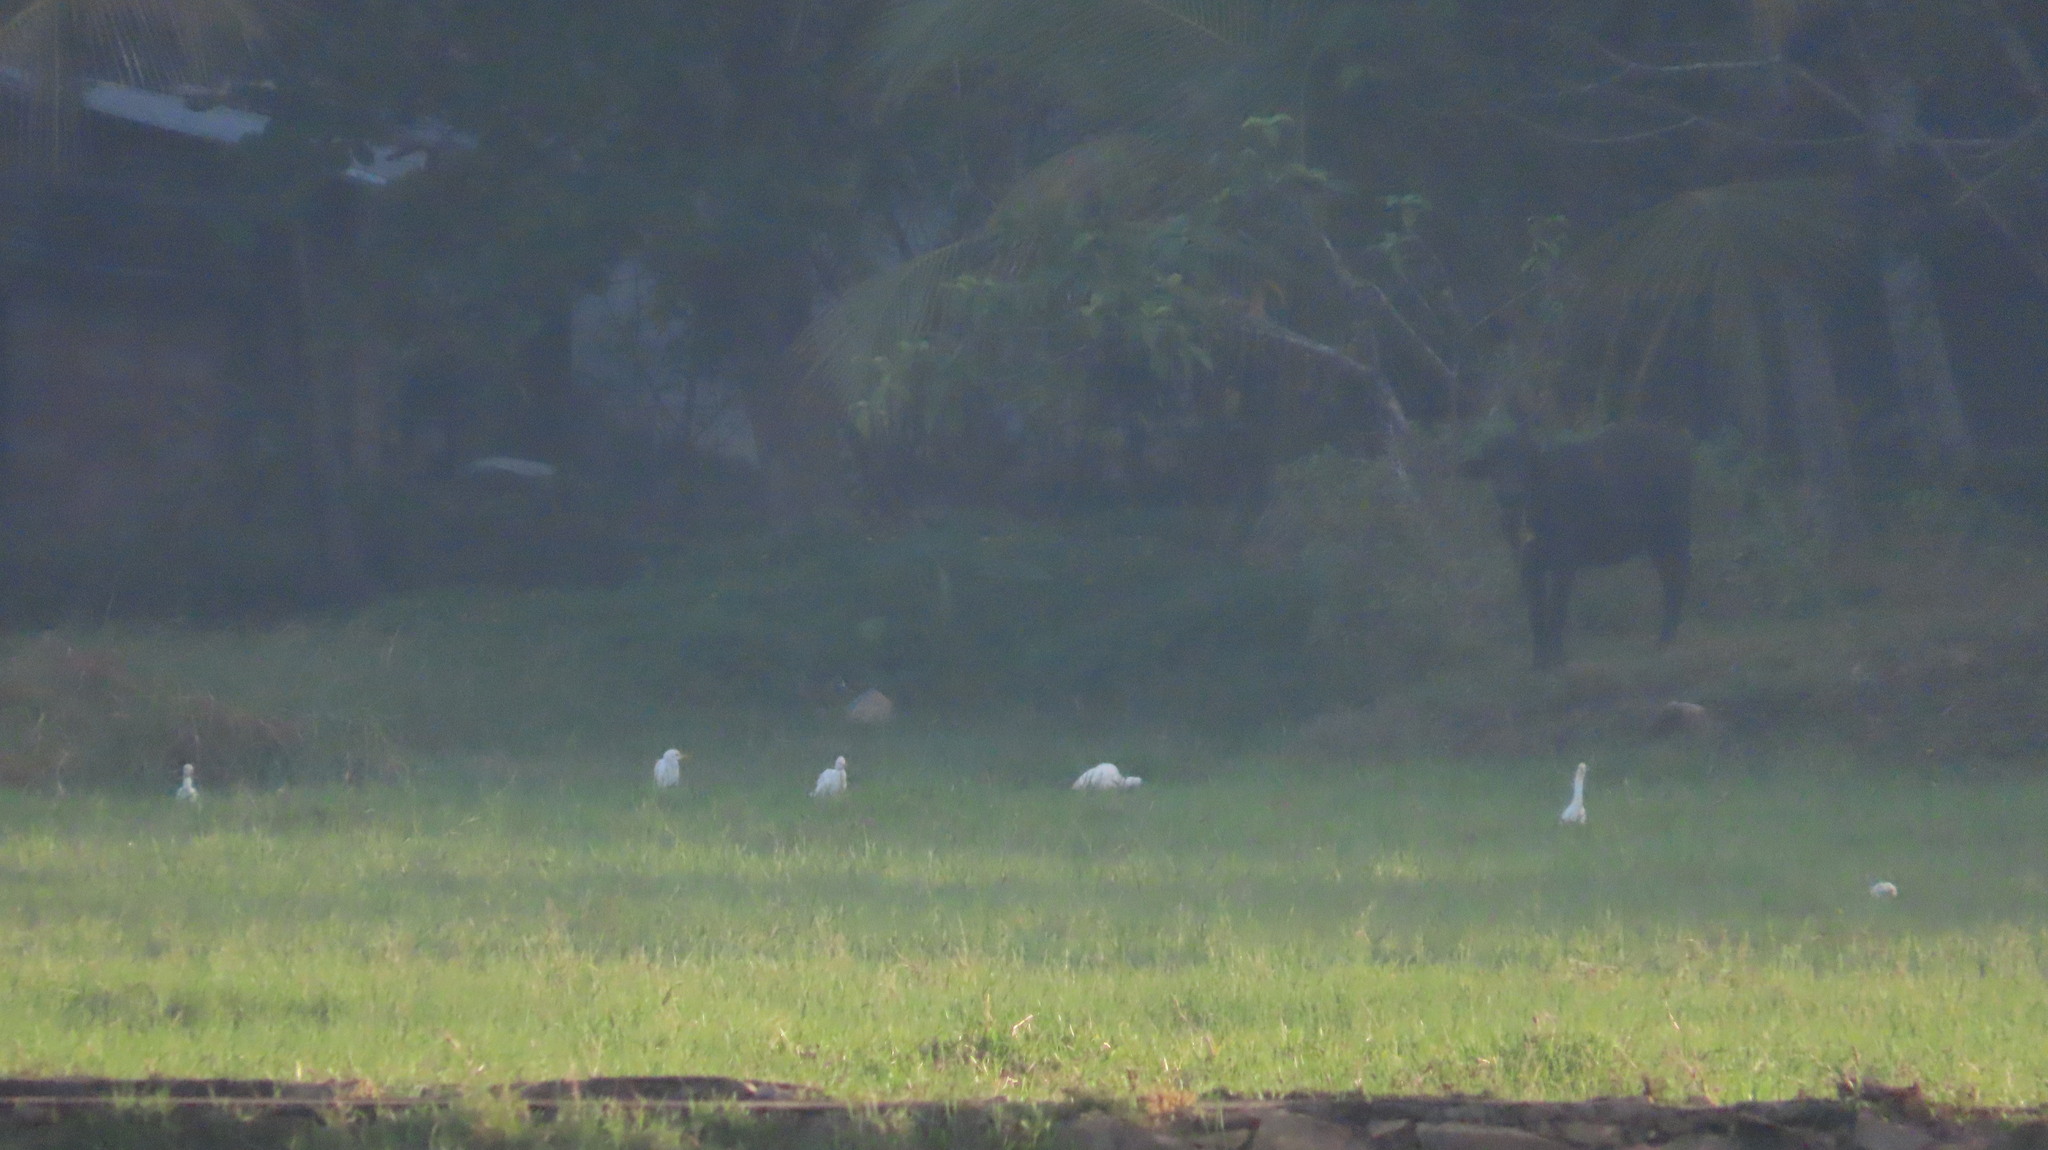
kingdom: Animalia
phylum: Chordata
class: Aves
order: Pelecaniformes
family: Ardeidae
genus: Bubulcus
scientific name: Bubulcus coromandus
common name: Eastern cattle egret
